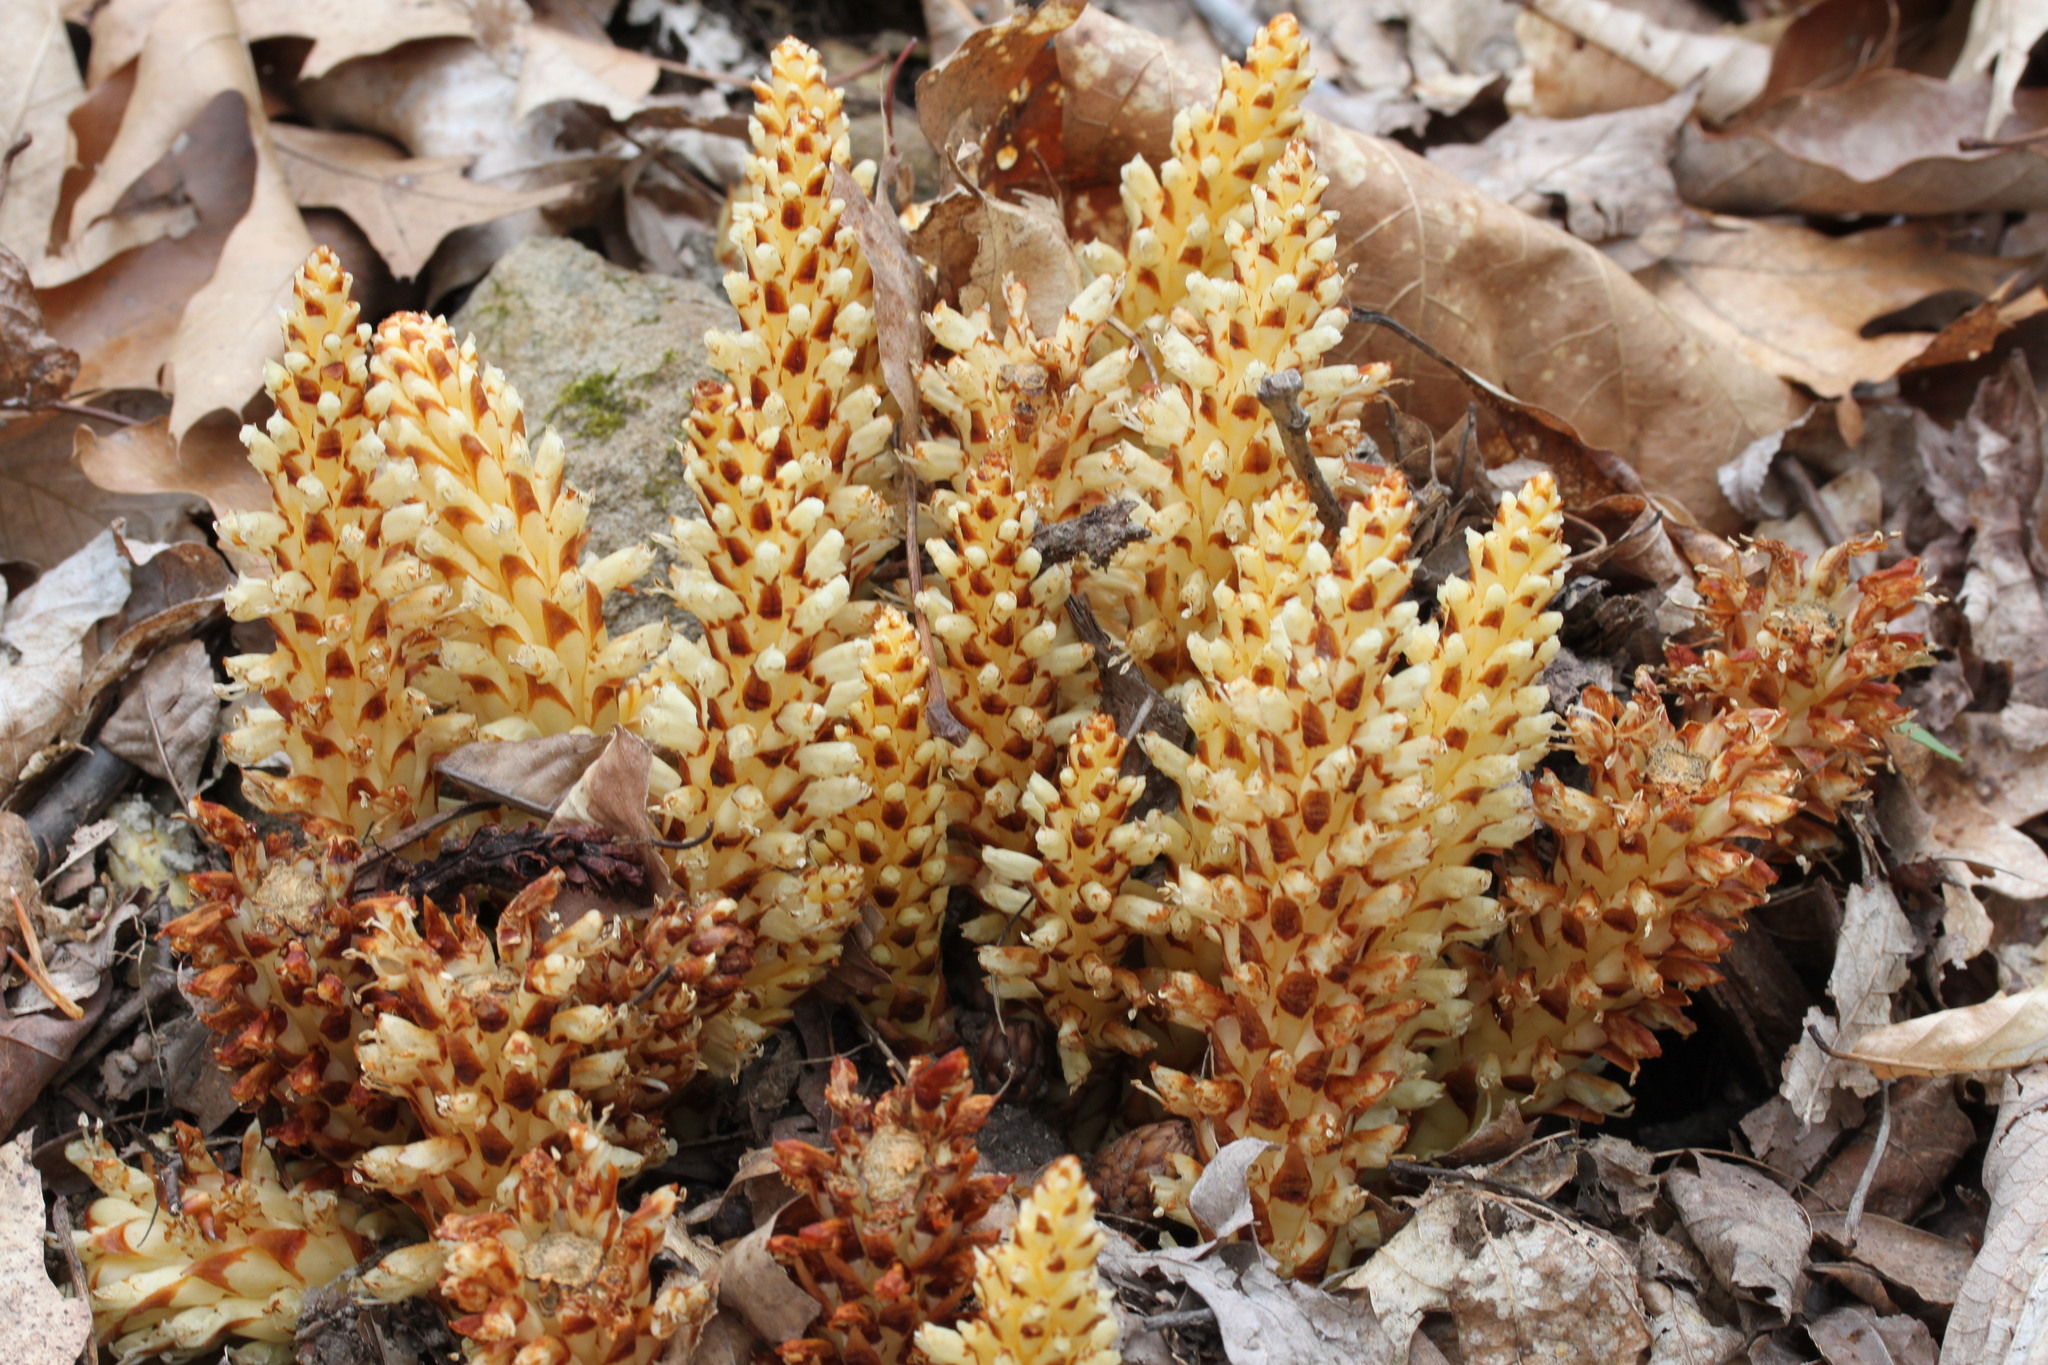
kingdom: Plantae
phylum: Tracheophyta
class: Magnoliopsida
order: Lamiales
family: Orobanchaceae
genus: Conopholis
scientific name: Conopholis americana
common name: American cancer-root
